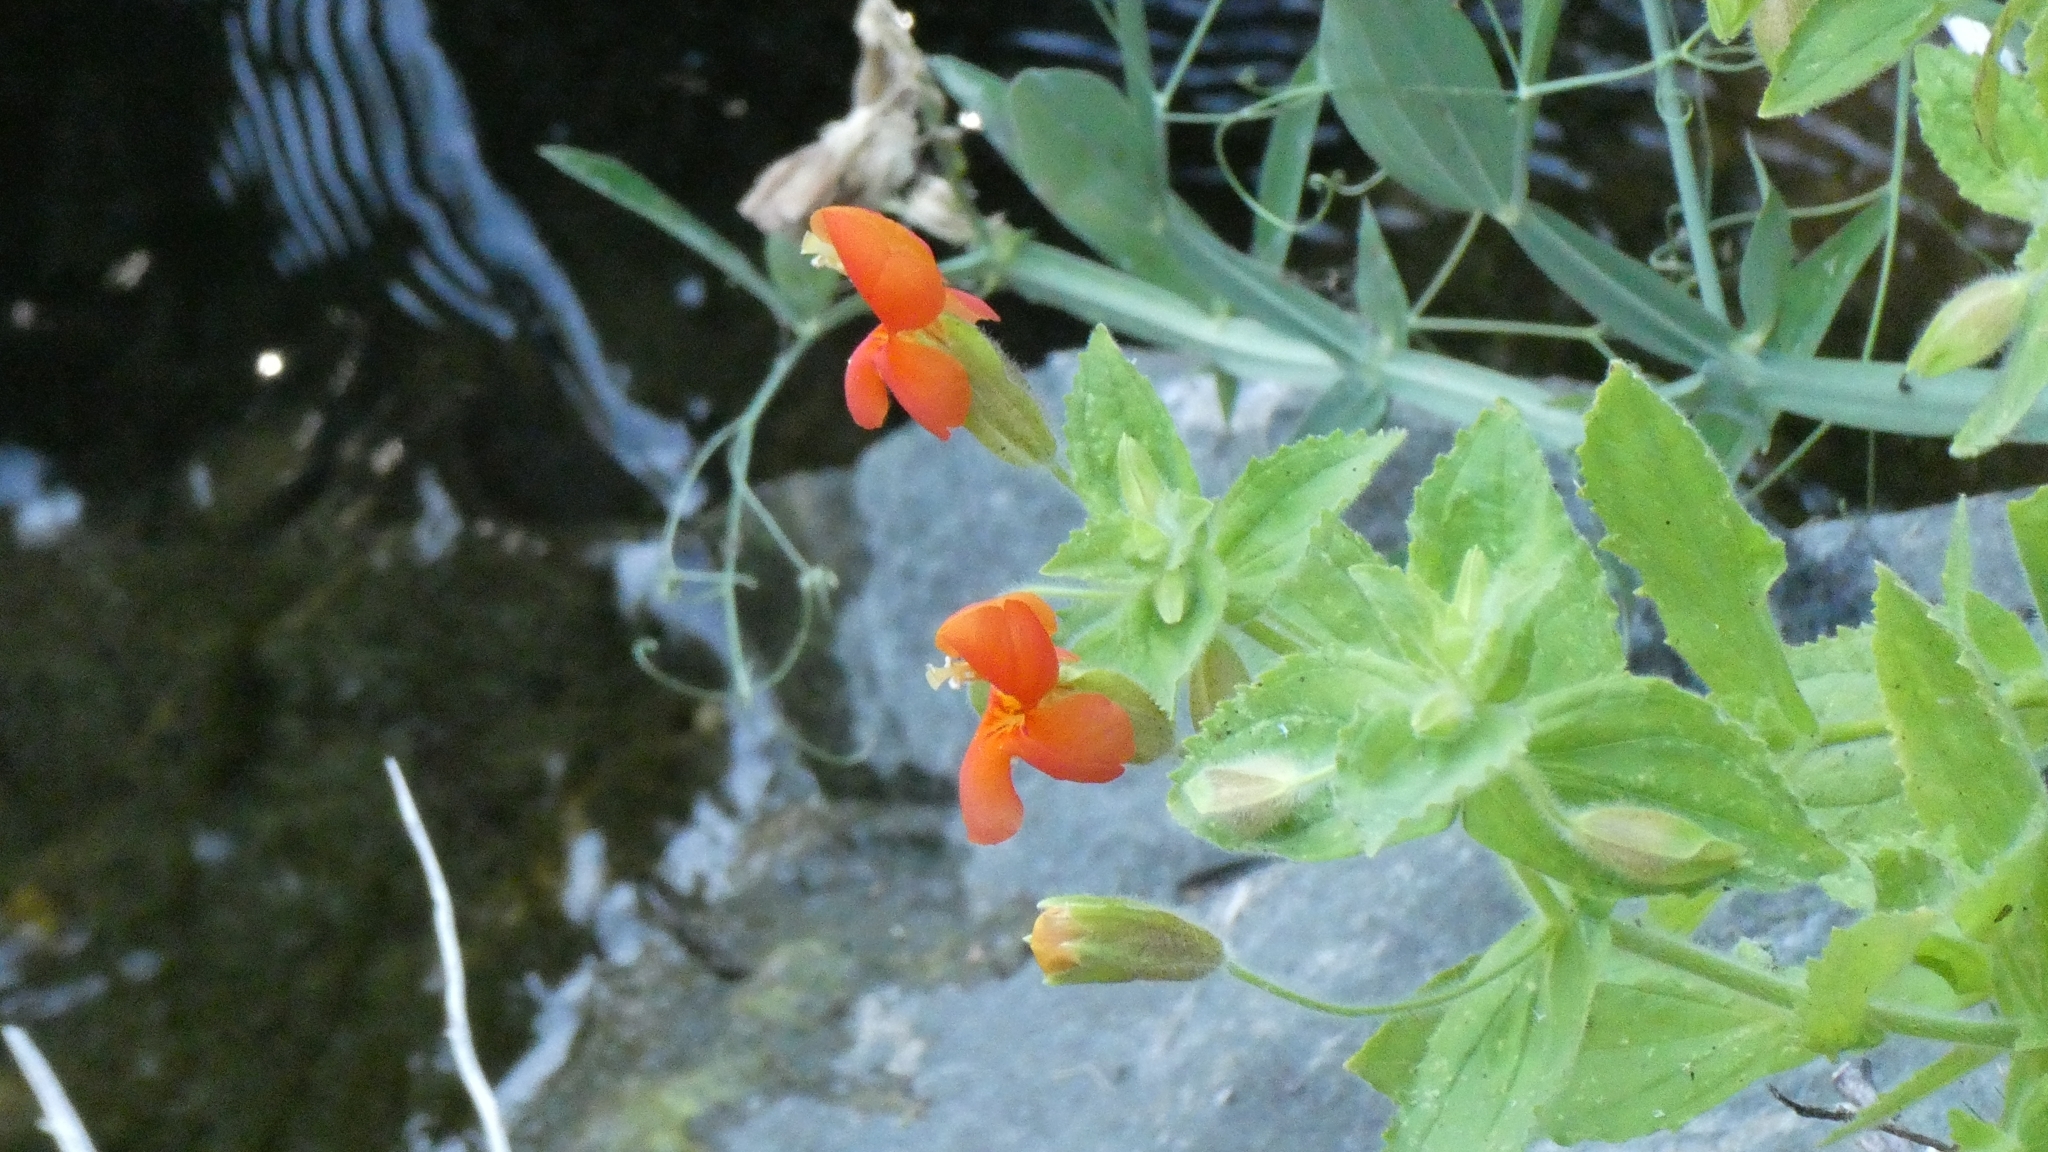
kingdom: Plantae
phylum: Tracheophyta
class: Magnoliopsida
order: Lamiales
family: Phrymaceae
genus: Erythranthe
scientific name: Erythranthe cardinalis
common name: Scarlet monkey-flower
